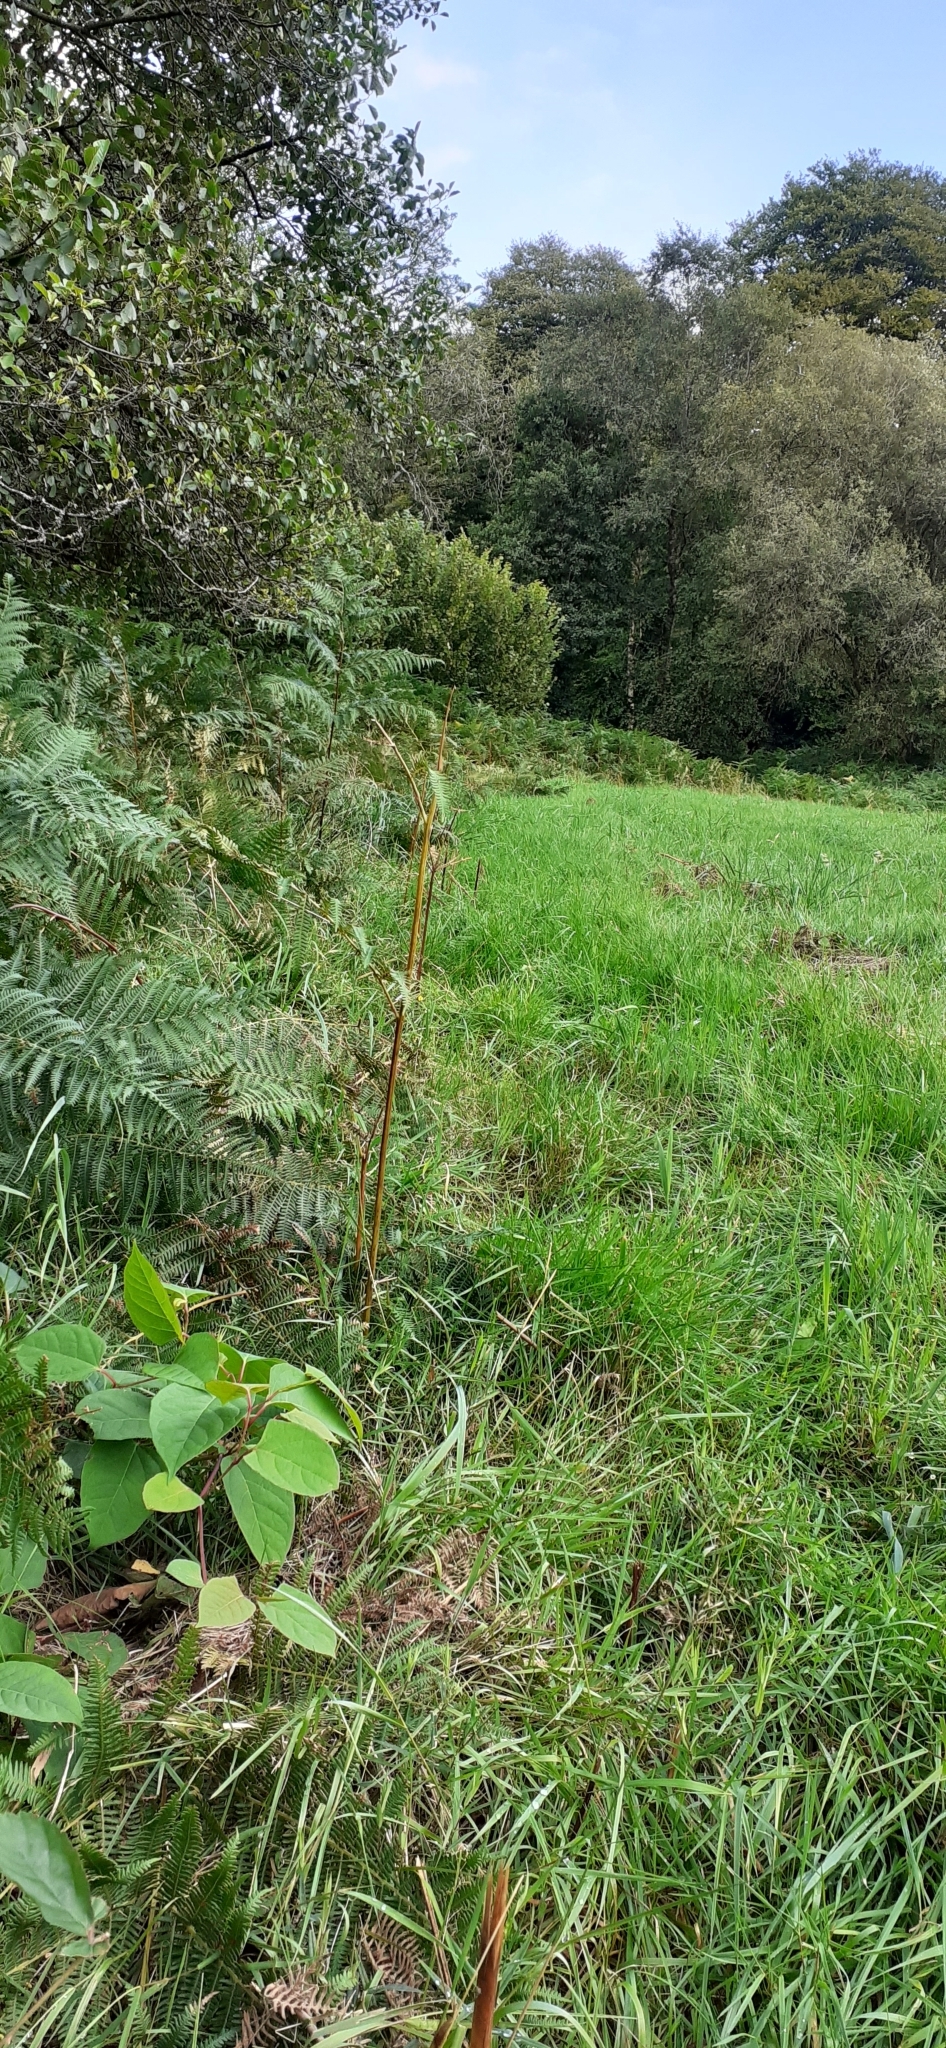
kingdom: Plantae
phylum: Tracheophyta
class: Magnoliopsida
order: Caryophyllales
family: Polygonaceae
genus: Reynoutria
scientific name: Reynoutria japonica
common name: Japanese knotweed
